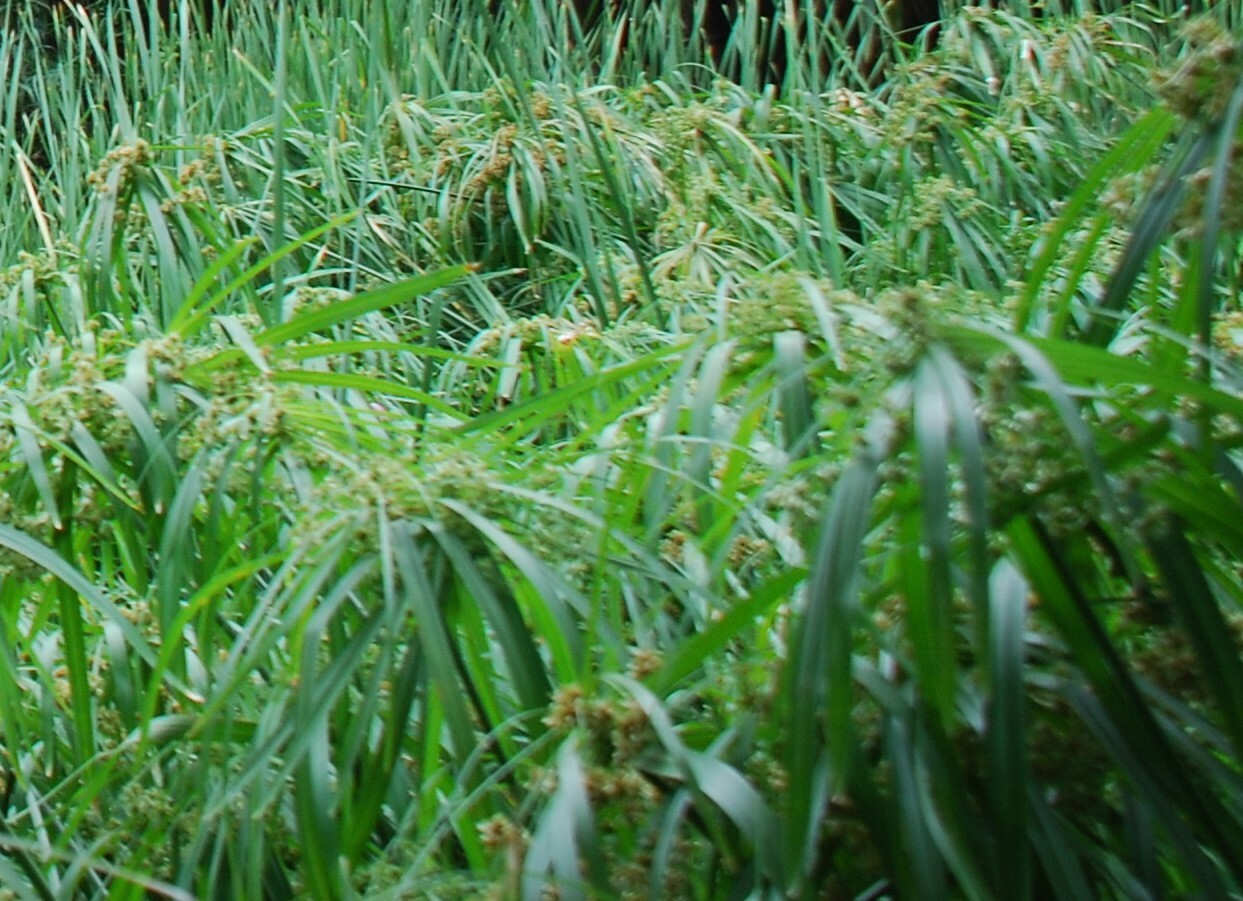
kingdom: Plantae
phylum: Tracheophyta
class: Liliopsida
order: Poales
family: Cyperaceae
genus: Cyperus
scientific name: Cyperus alternifolius
